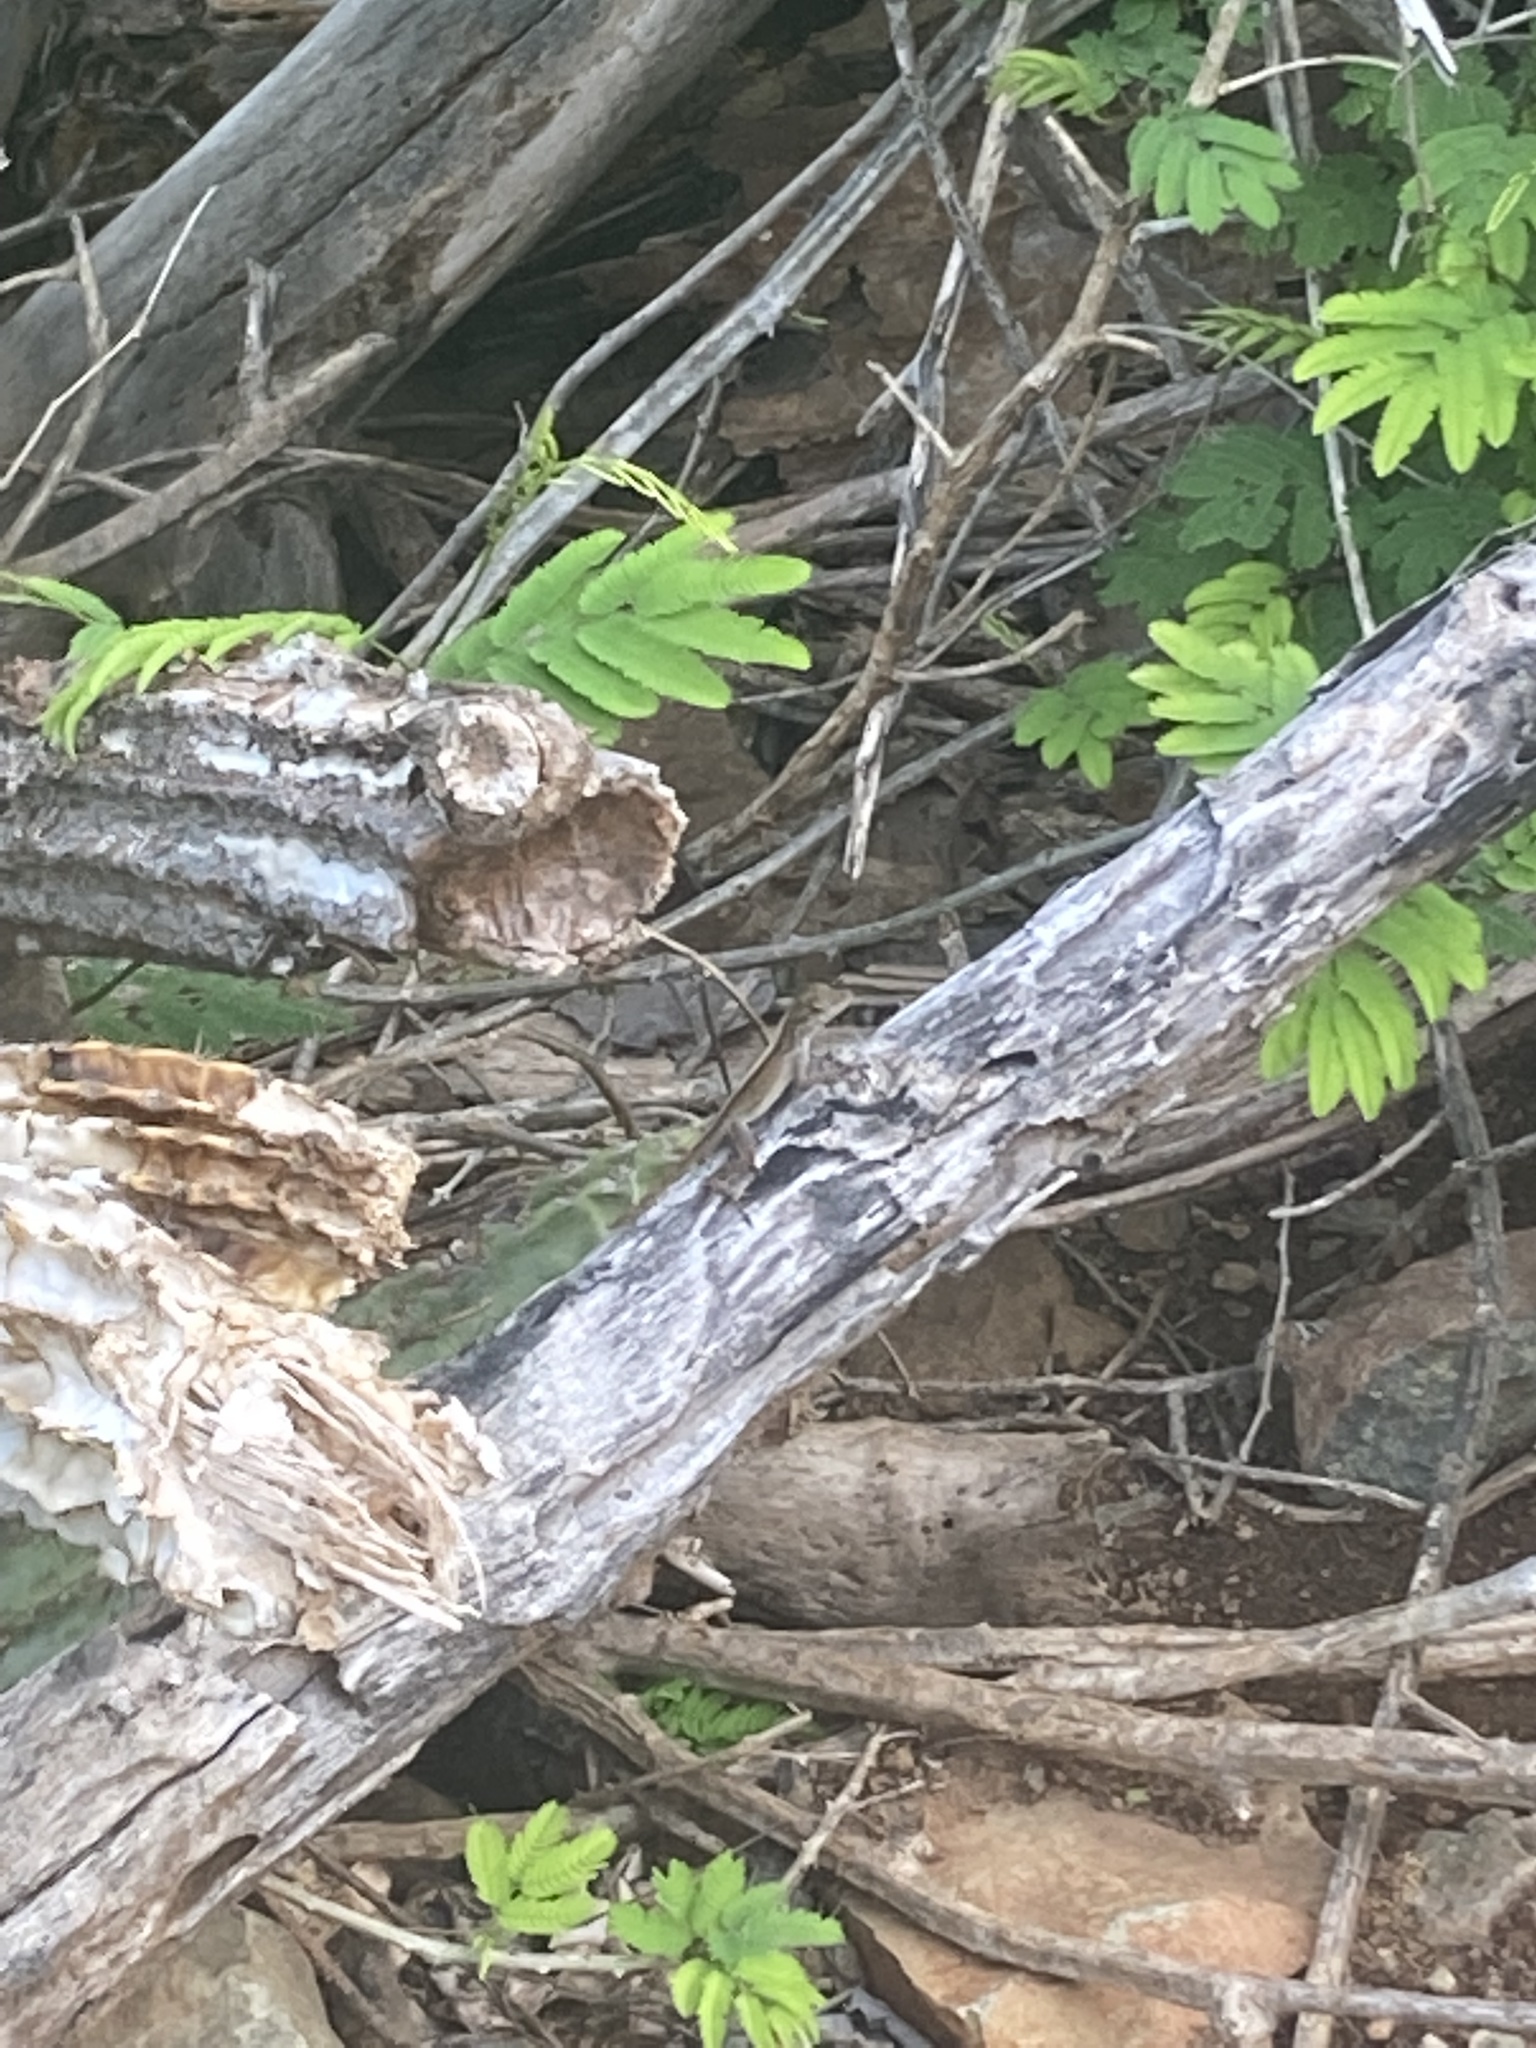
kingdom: Animalia
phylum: Chordata
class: Squamata
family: Dactyloidae
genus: Anolis
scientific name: Anolis sagrei
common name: Brown anole
